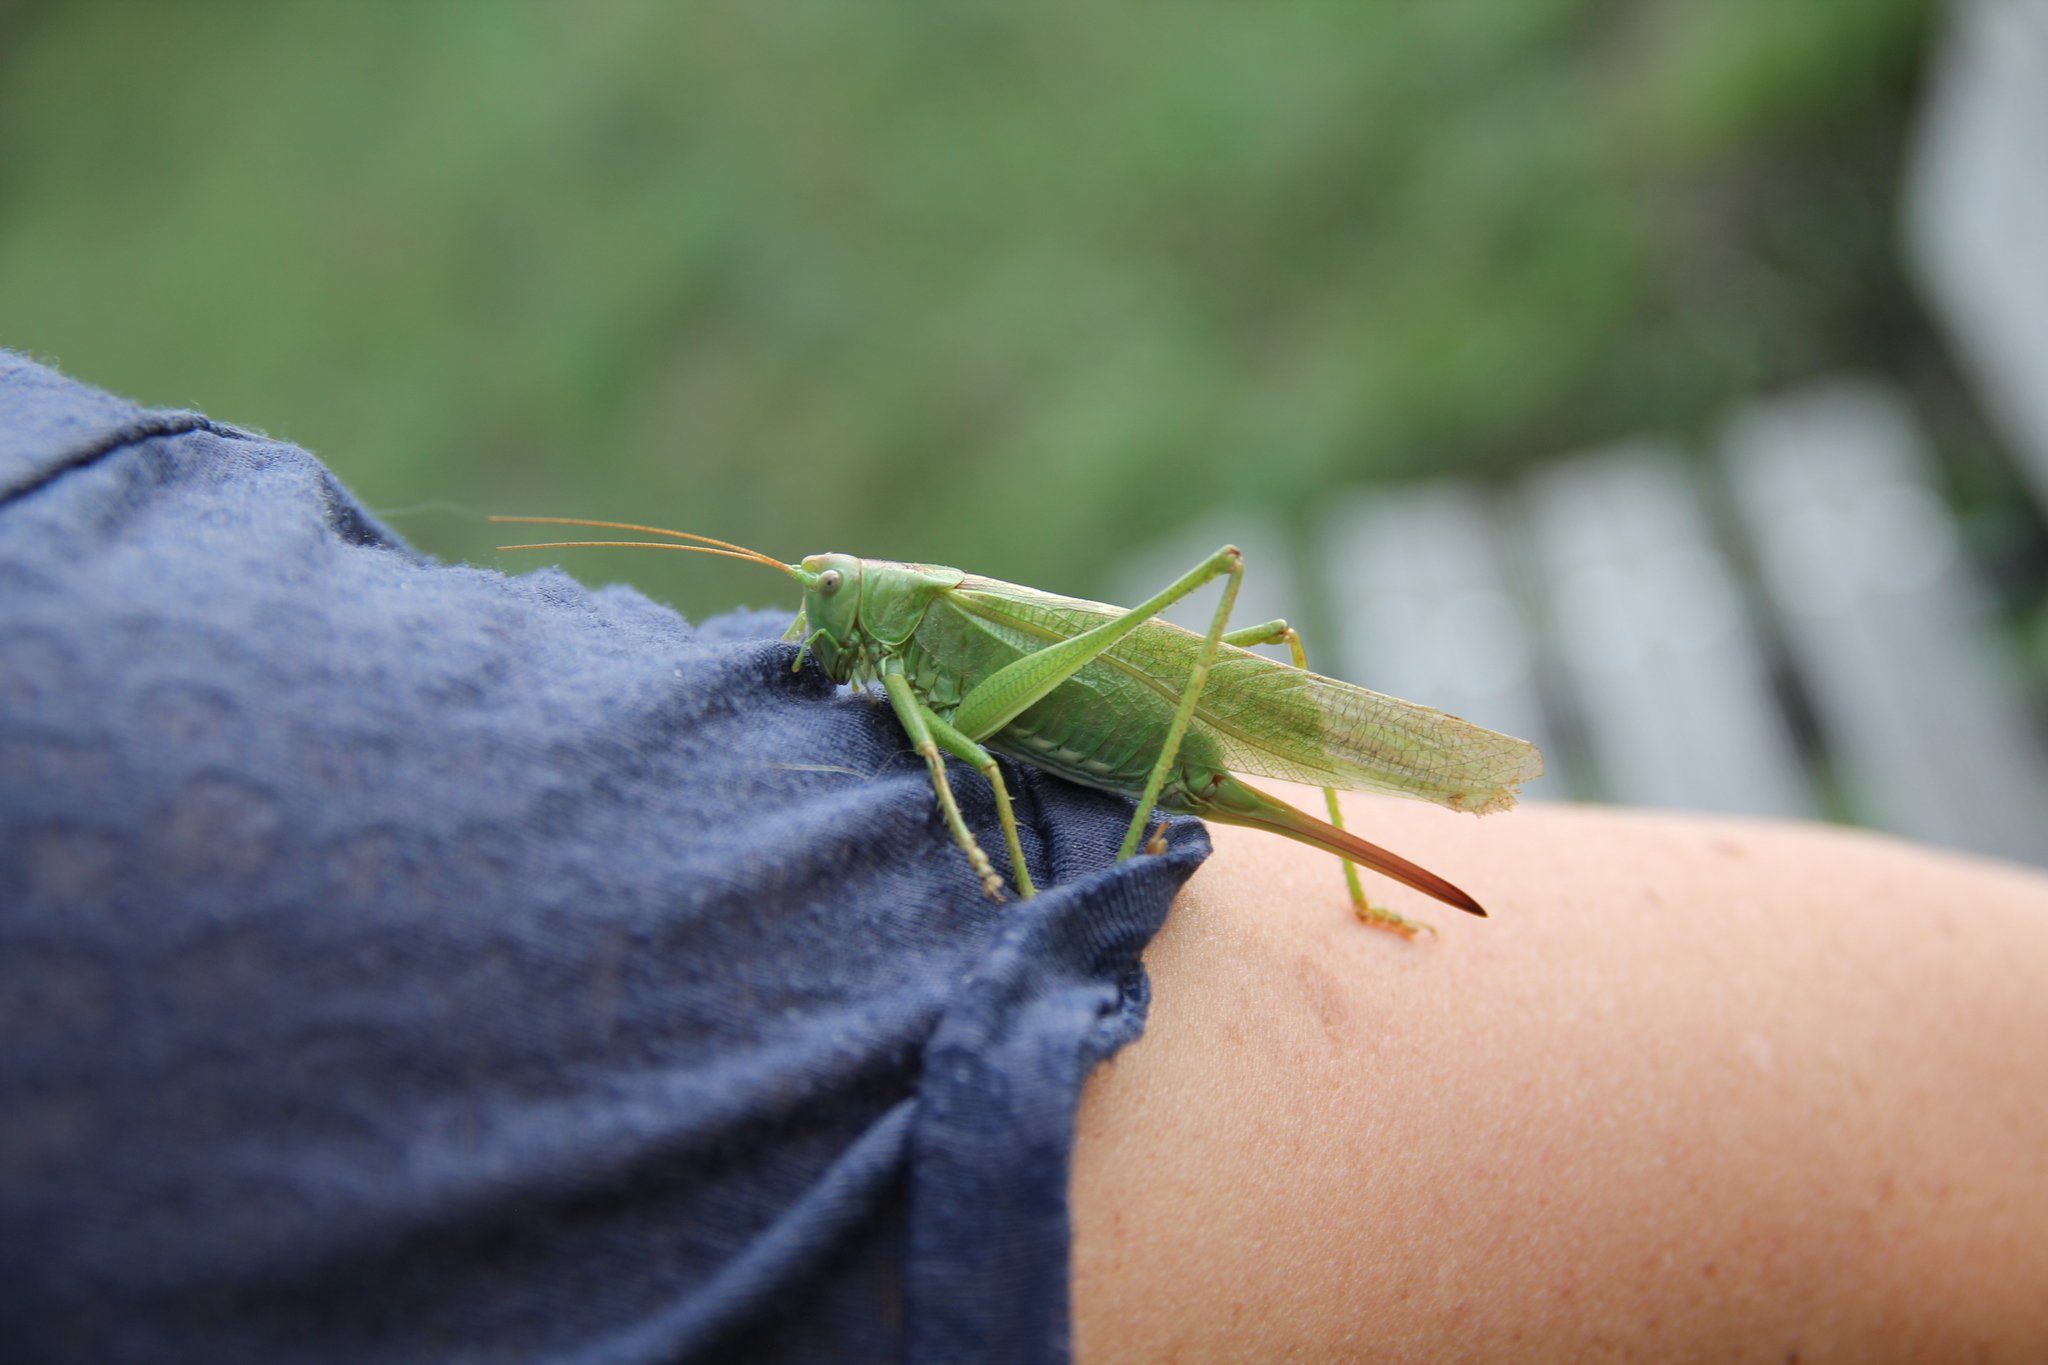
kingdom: Animalia
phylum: Arthropoda
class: Insecta
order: Orthoptera
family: Tettigoniidae
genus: Tettigonia
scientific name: Tettigonia viridissima
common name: Great green bush-cricket
